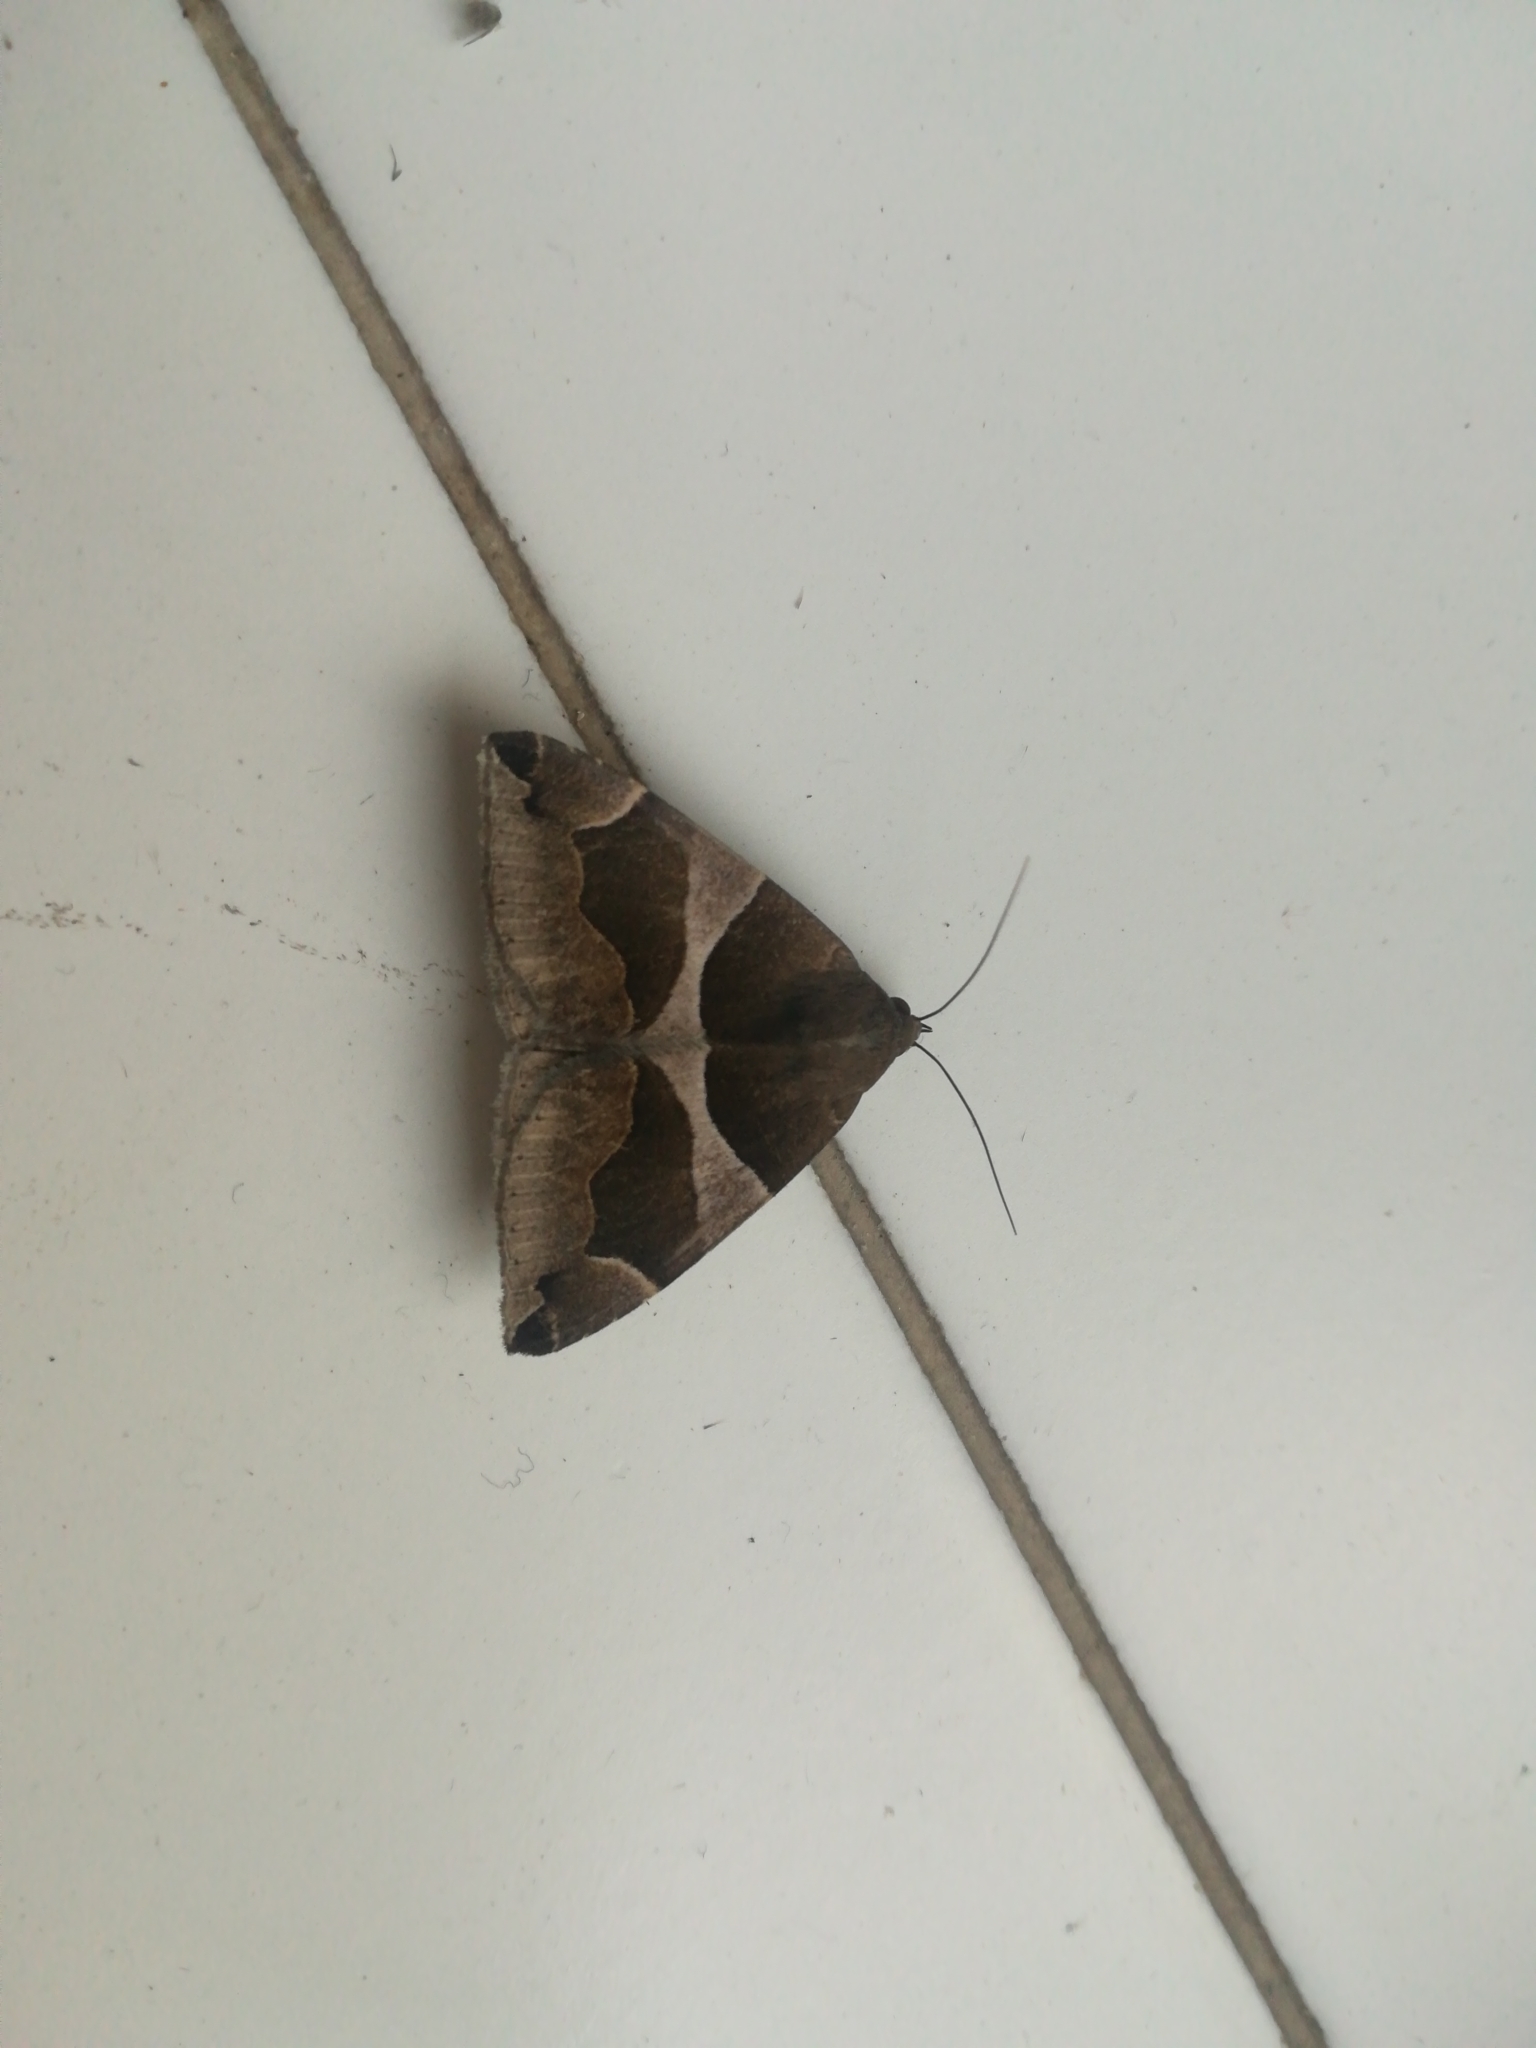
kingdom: Animalia
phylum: Arthropoda
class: Insecta
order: Lepidoptera
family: Erebidae
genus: Dysgonia
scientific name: Dysgonia algira
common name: Passenger
